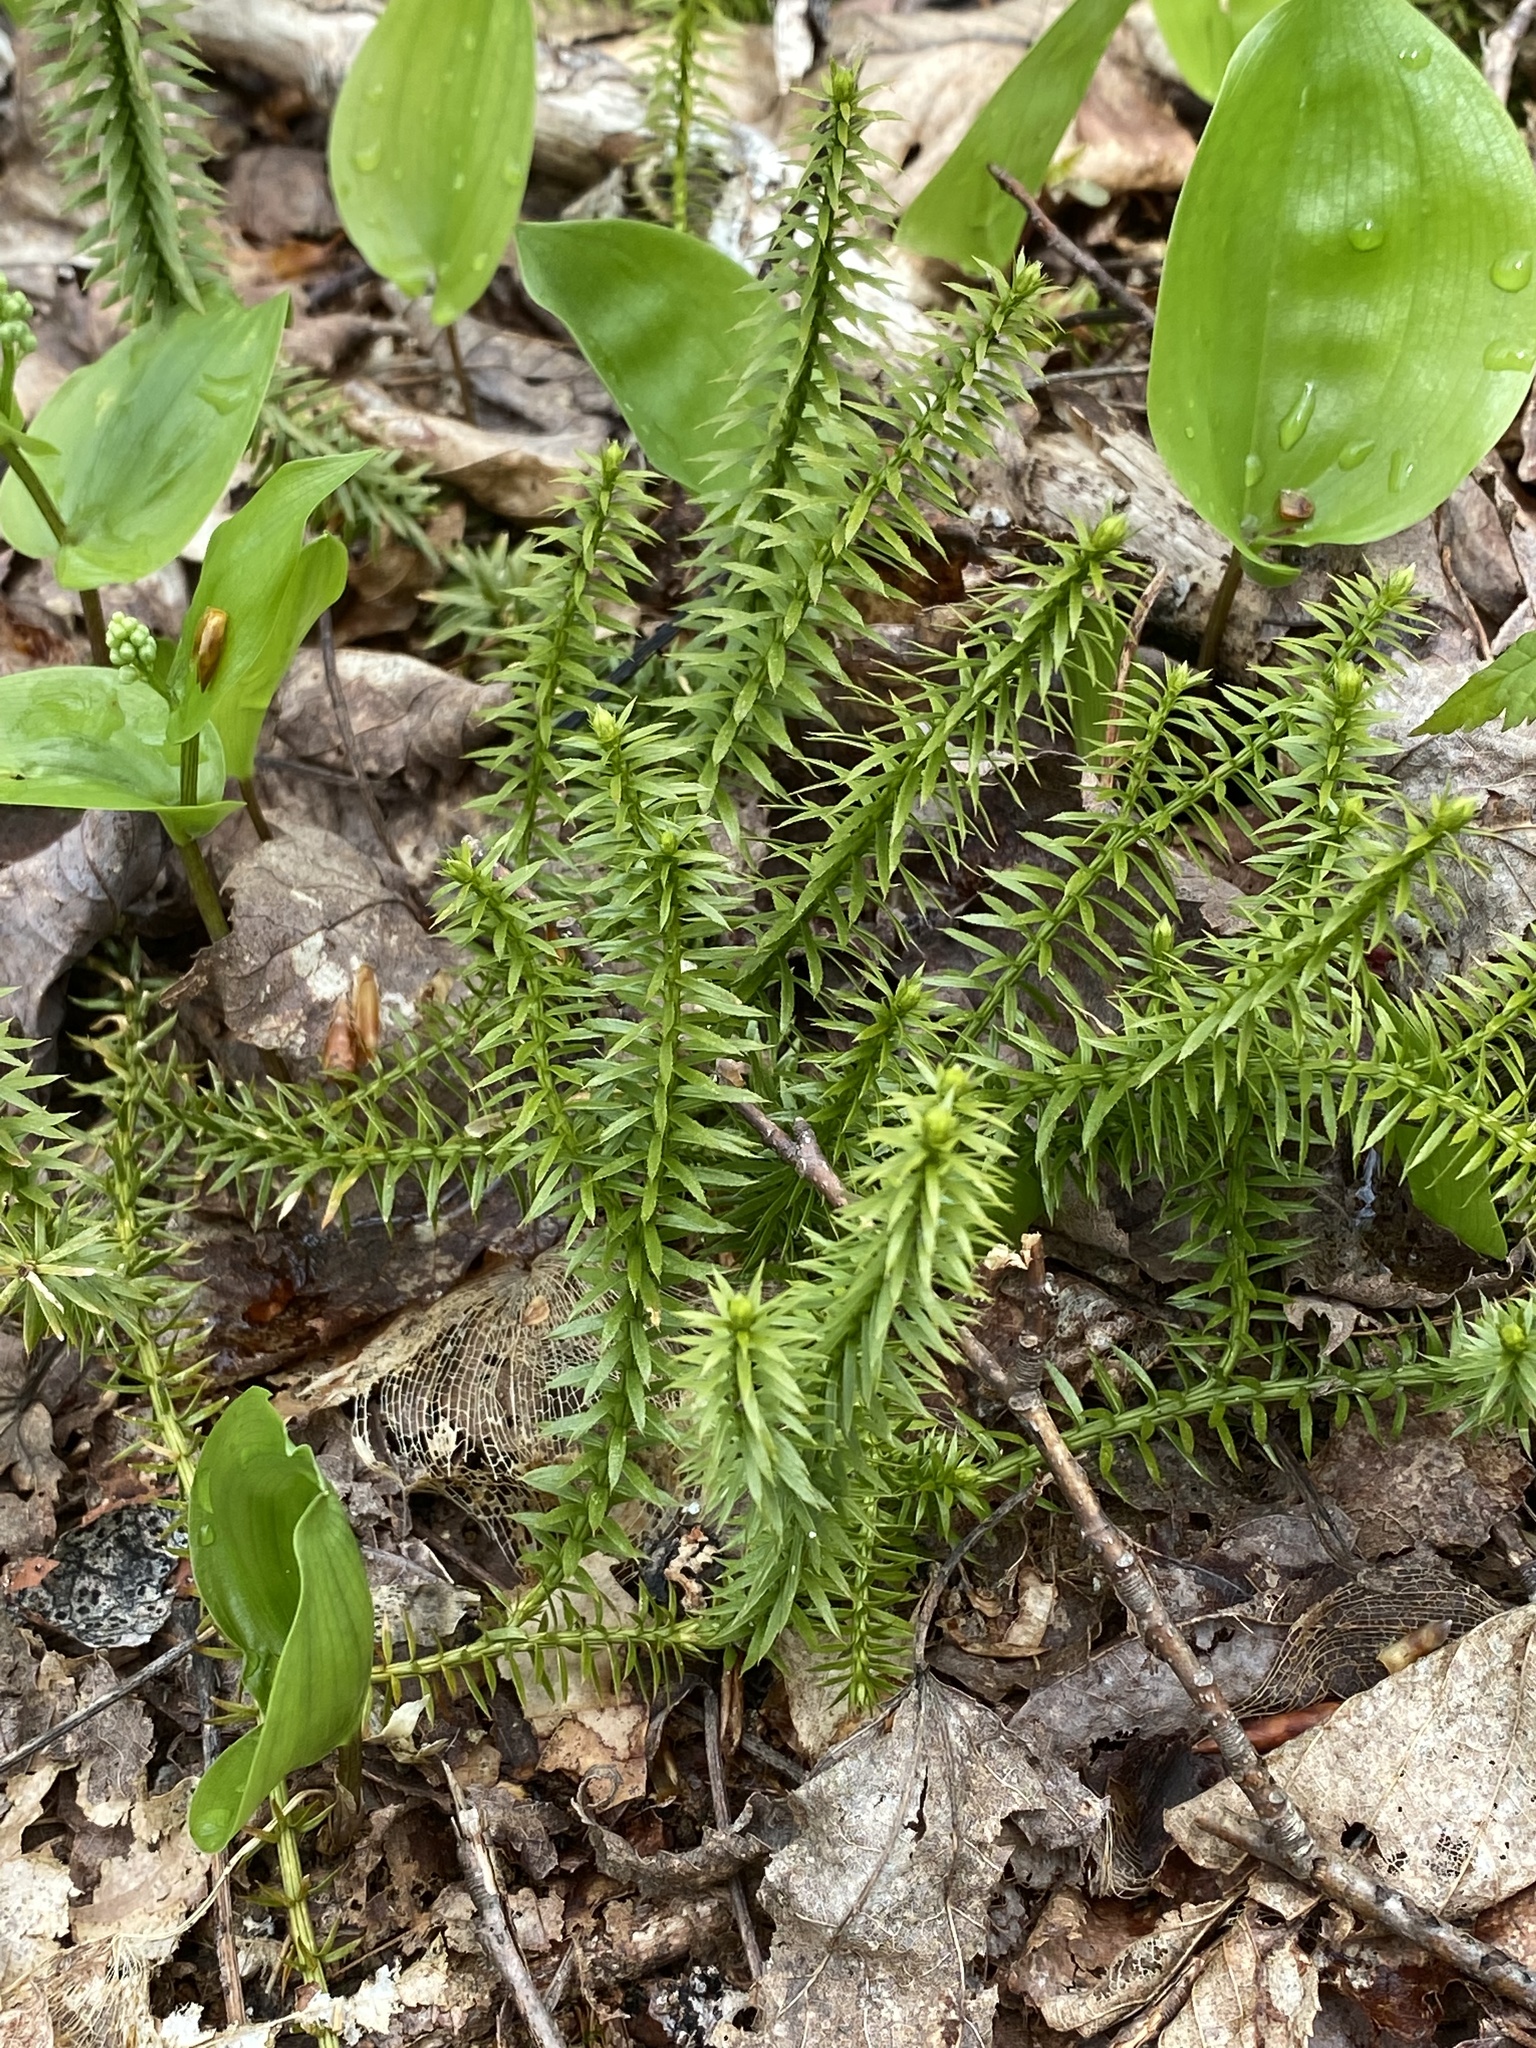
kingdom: Plantae
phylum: Tracheophyta
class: Lycopodiopsida
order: Lycopodiales
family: Lycopodiaceae
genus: Spinulum
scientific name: Spinulum annotinum
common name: Interrupted club-moss
